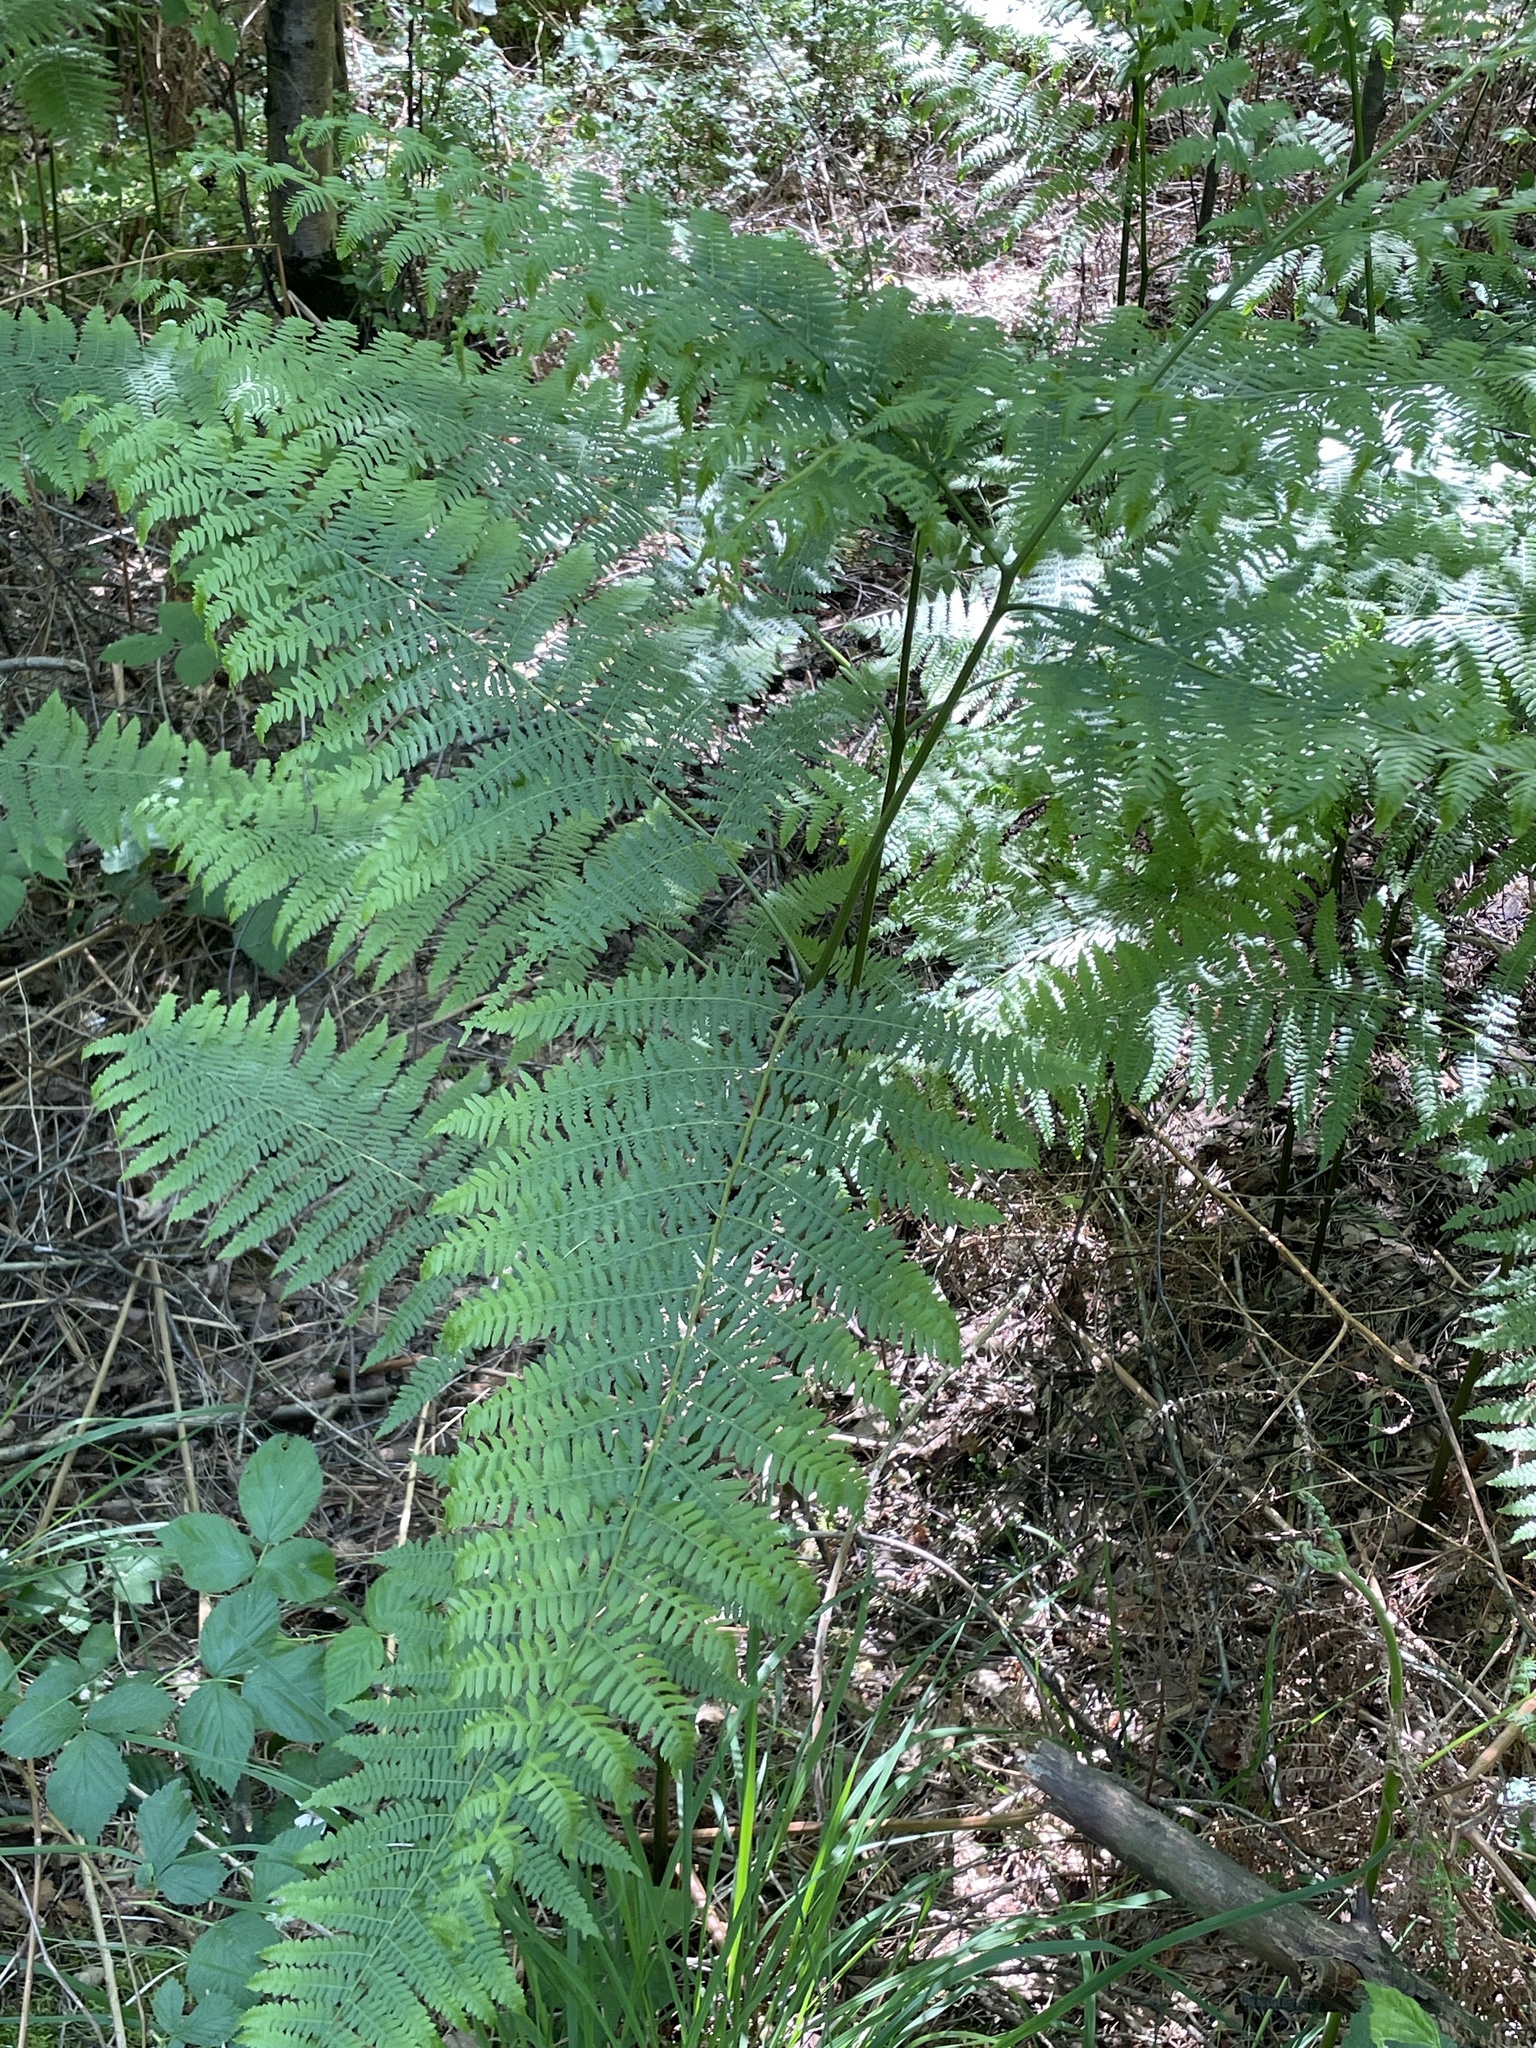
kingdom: Plantae
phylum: Tracheophyta
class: Polypodiopsida
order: Polypodiales
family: Dennstaedtiaceae
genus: Pteridium
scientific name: Pteridium aquilinum
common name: Bracken
